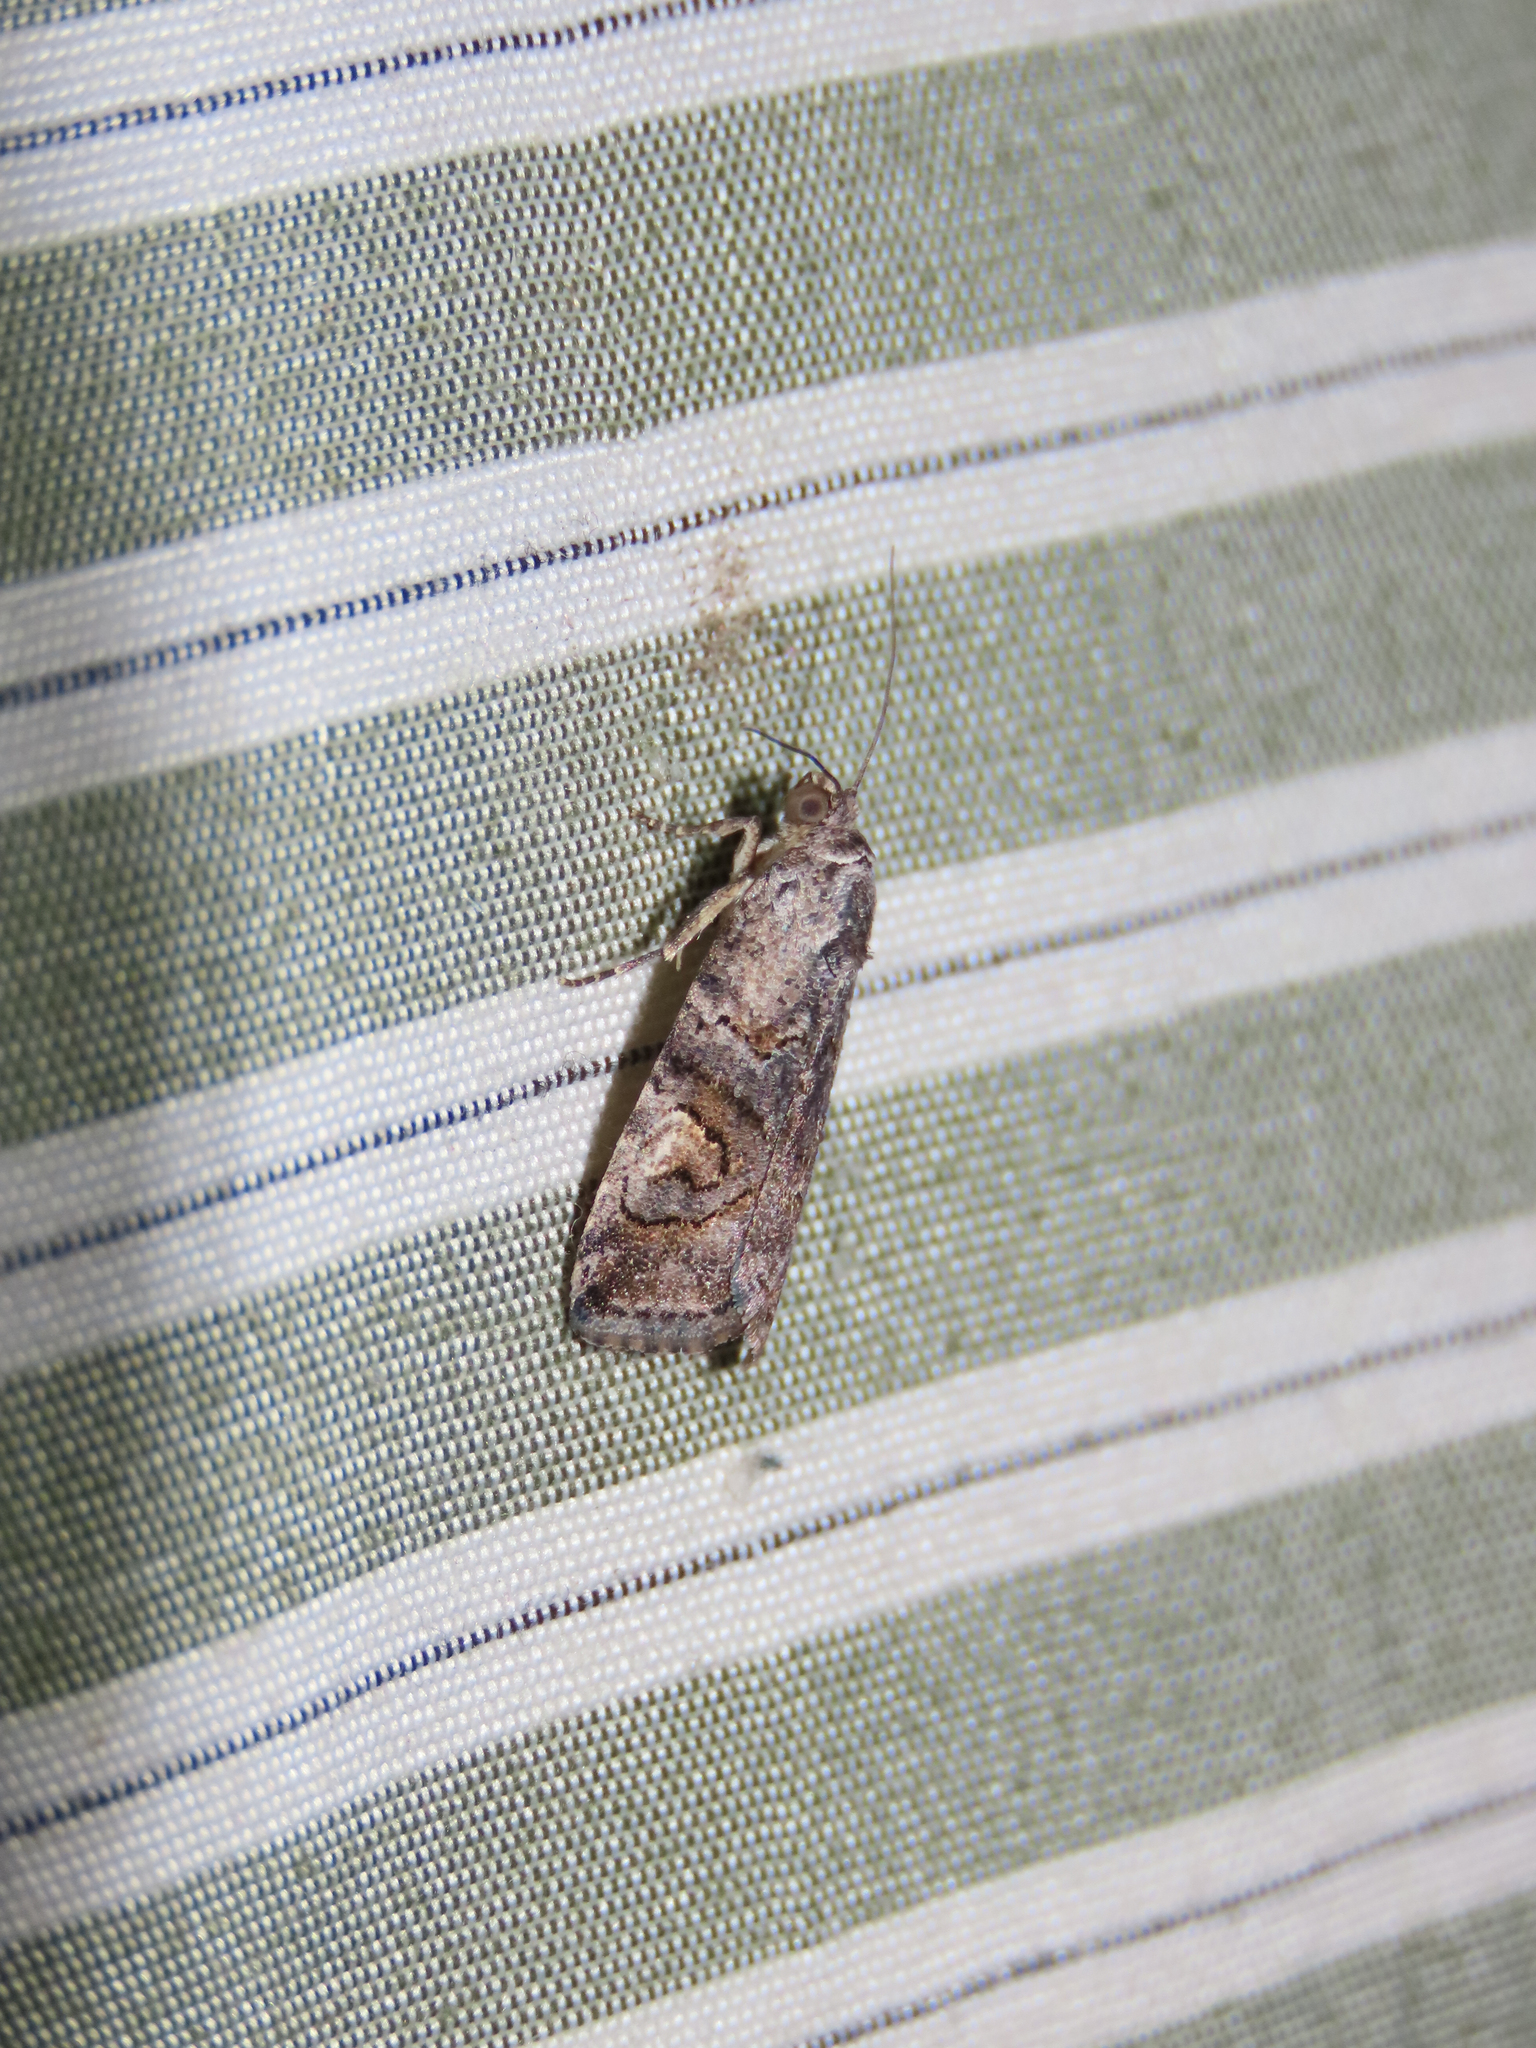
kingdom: Animalia
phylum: Arthropoda
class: Insecta
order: Lepidoptera
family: Noctuidae
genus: Metaponpneumata
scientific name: Metaponpneumata rogenhoferi
